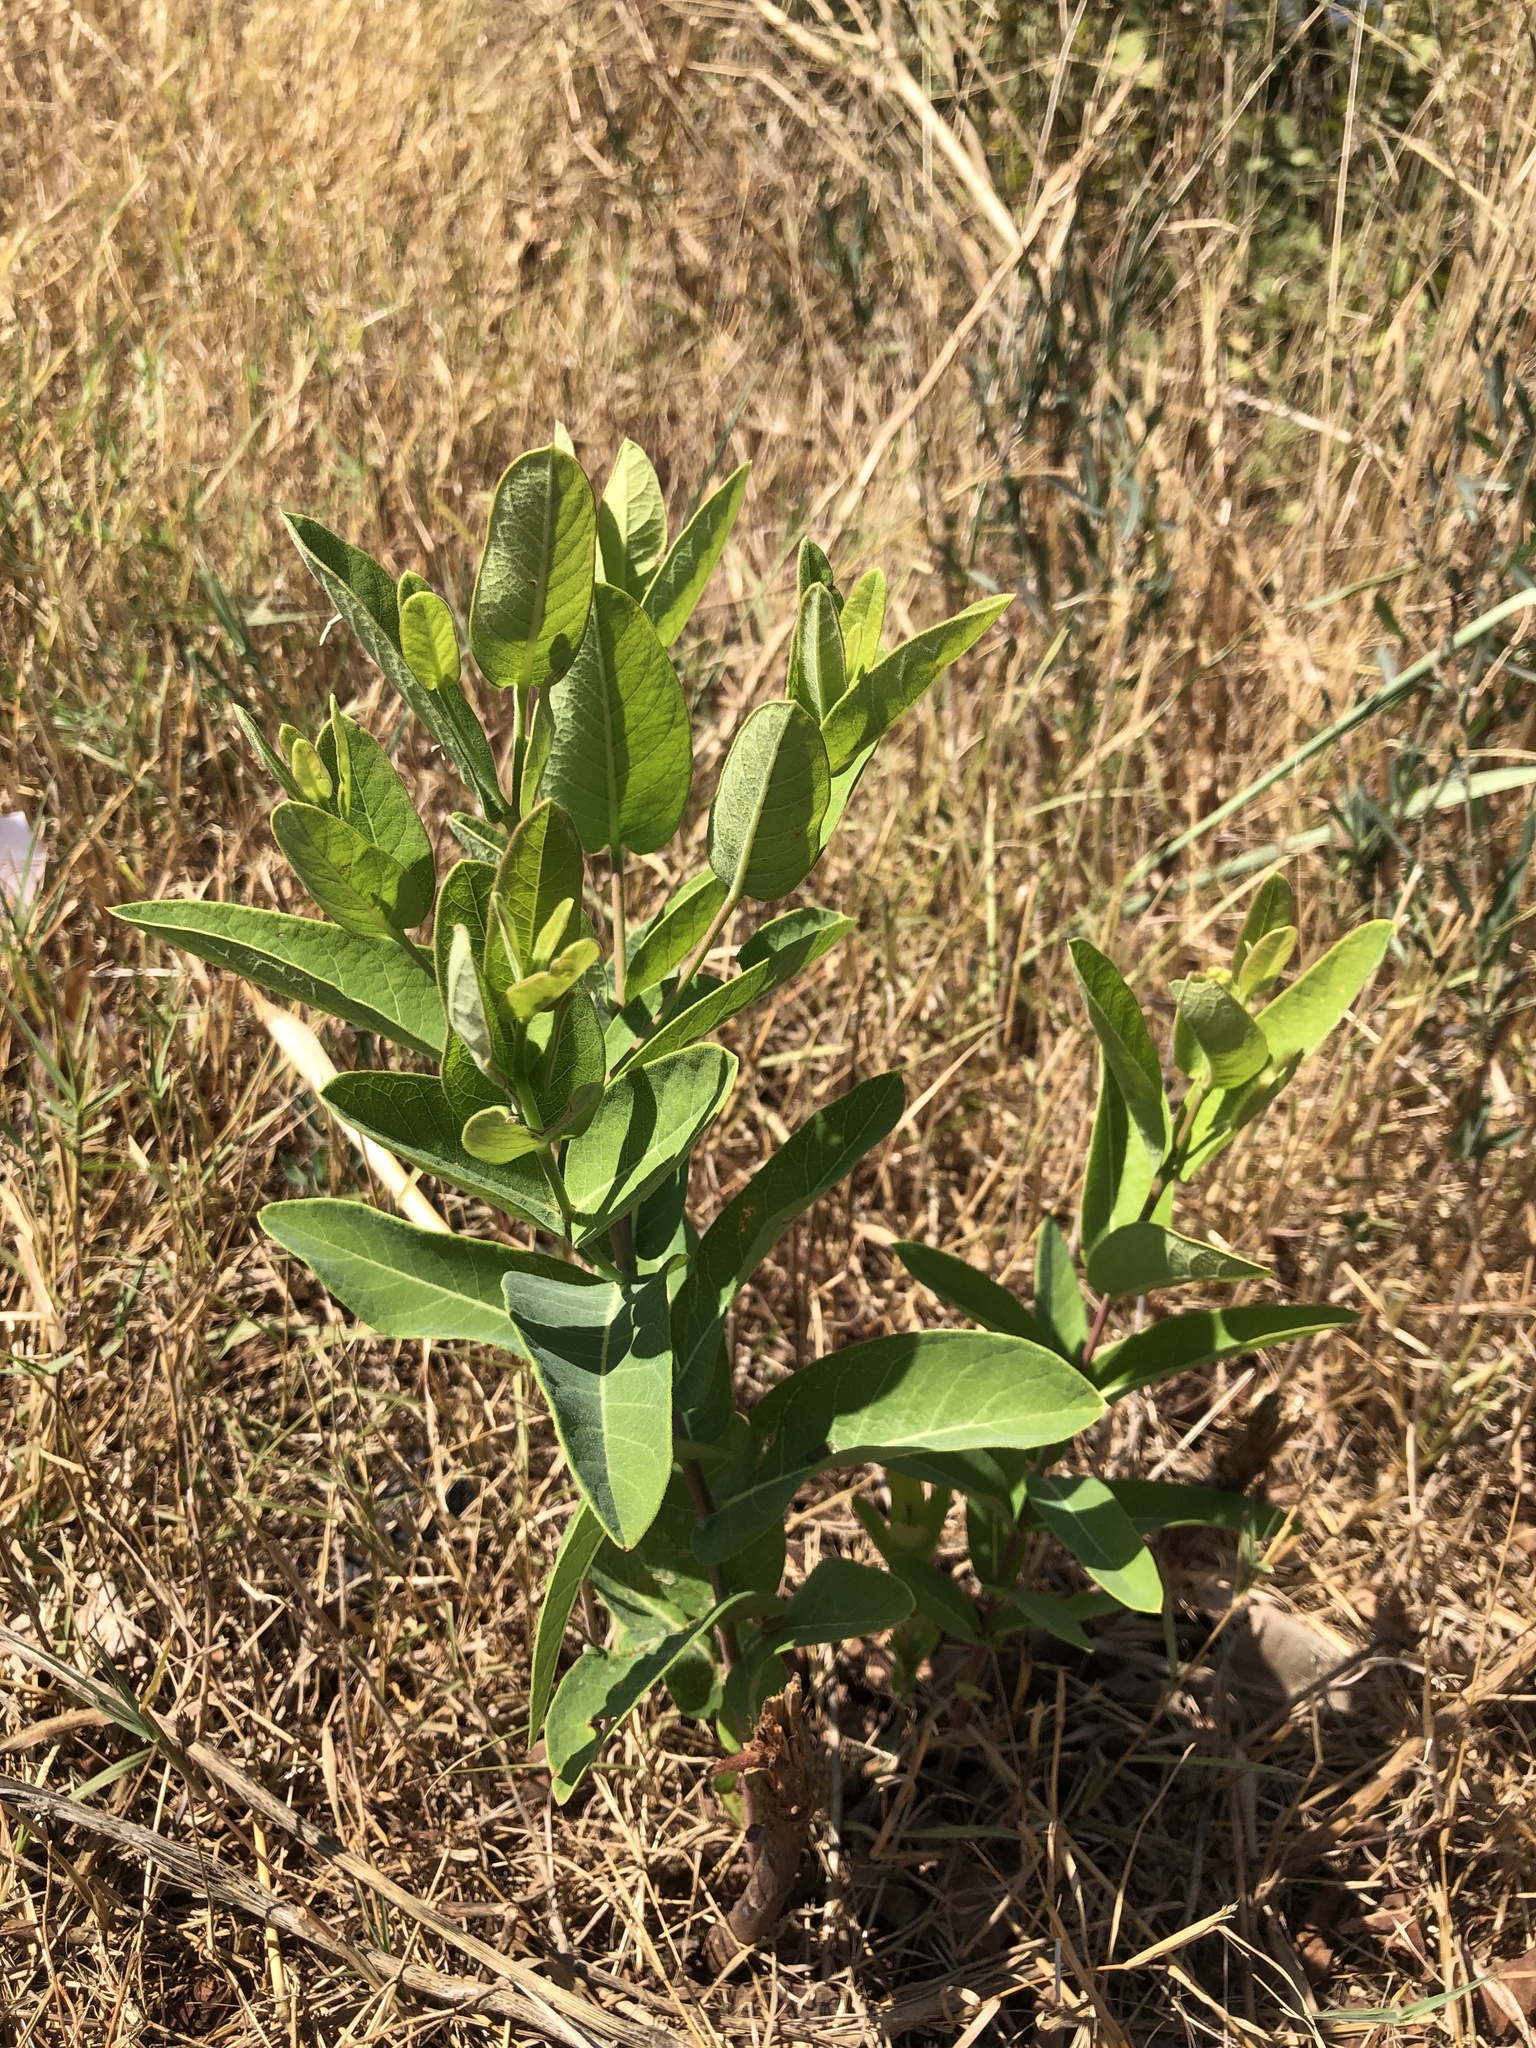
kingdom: Plantae
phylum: Tracheophyta
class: Magnoliopsida
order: Gentianales
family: Apocynaceae
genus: Apocynum
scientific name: Apocynum cannabinum
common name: Hemp dogbane
